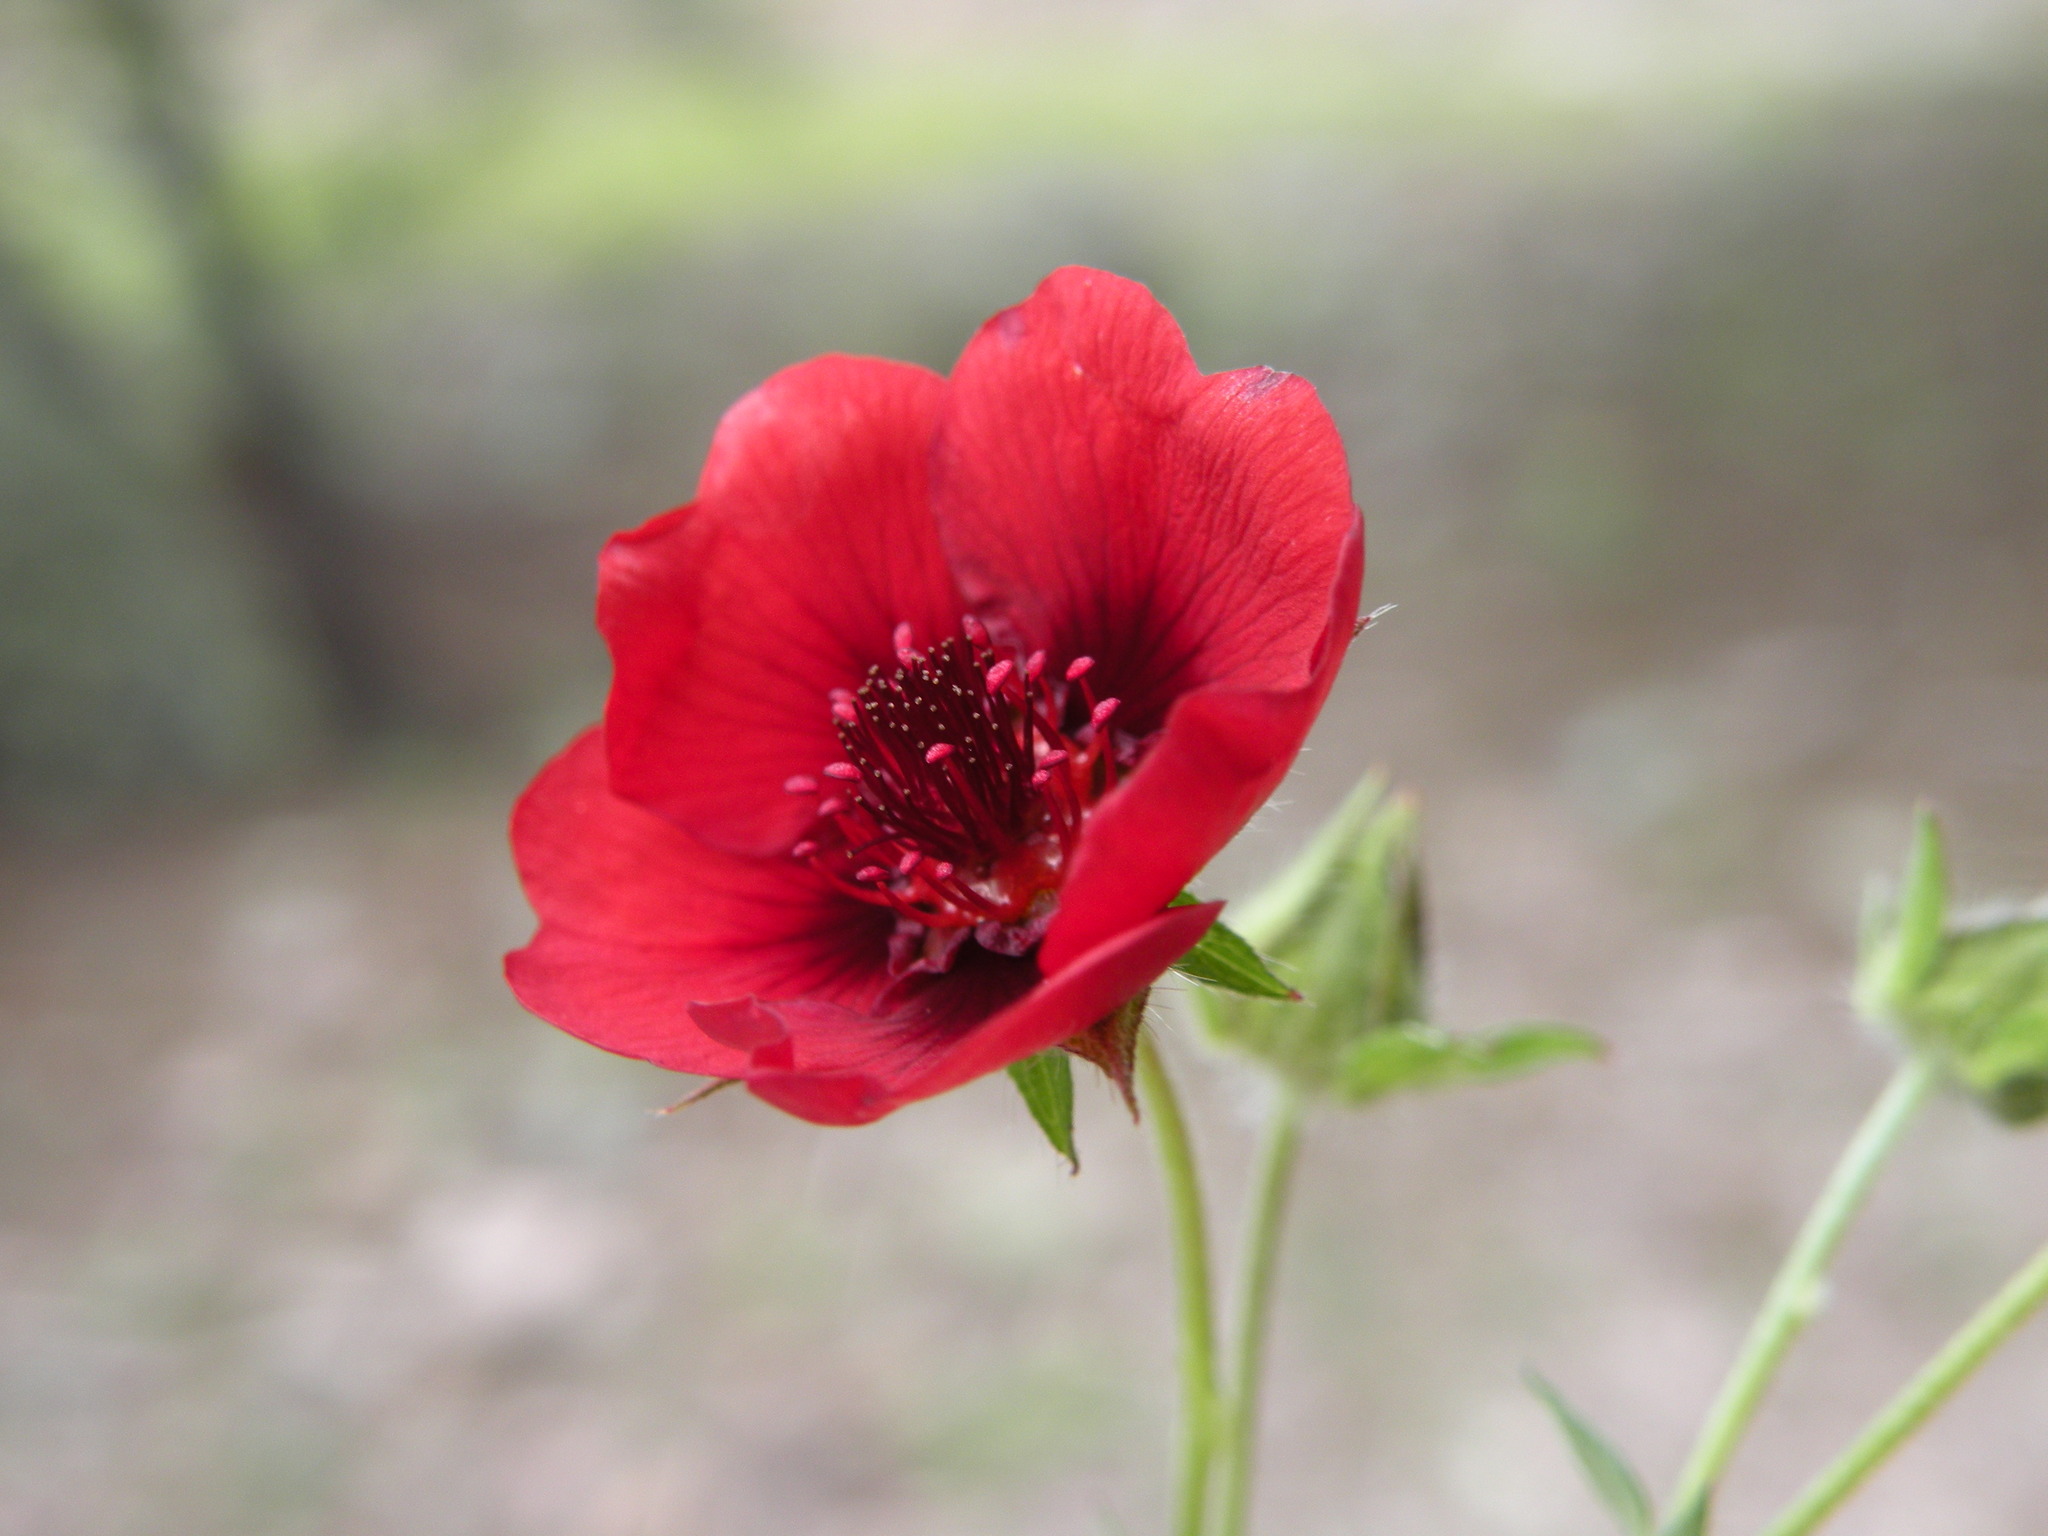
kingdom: Plantae
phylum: Tracheophyta
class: Magnoliopsida
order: Rosales
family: Rosaceae
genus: Potentilla
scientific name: Potentilla thurberi
